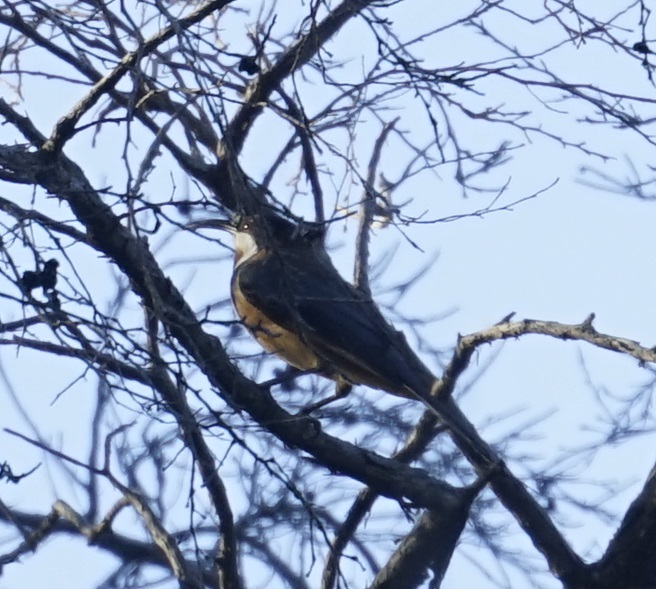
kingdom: Animalia
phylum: Chordata
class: Aves
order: Passeriformes
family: Meliphagidae
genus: Acanthorhynchus
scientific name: Acanthorhynchus tenuirostris
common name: Eastern spinebill
